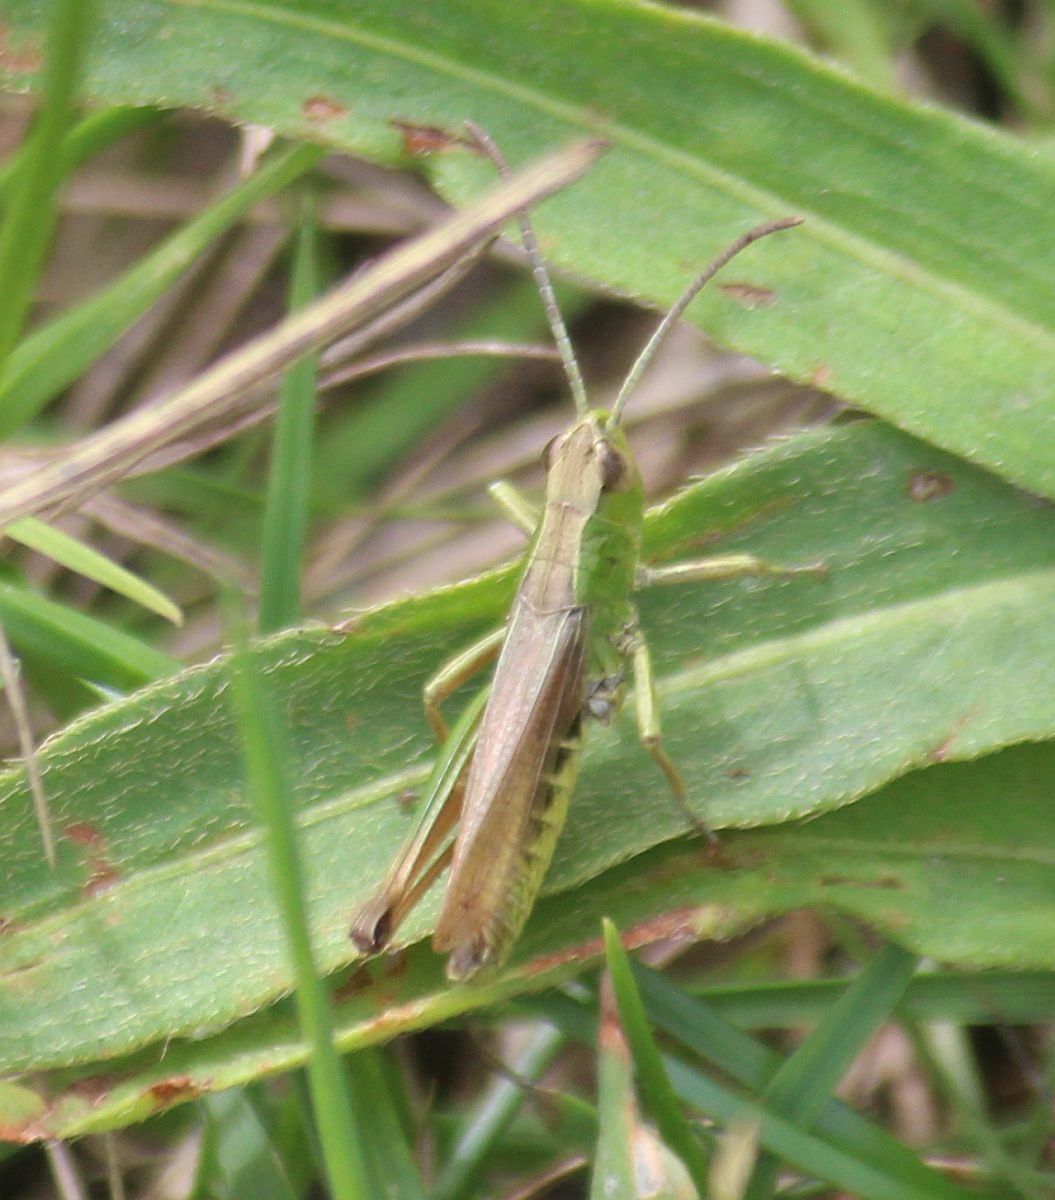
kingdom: Animalia
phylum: Arthropoda
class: Insecta
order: Orthoptera
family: Acrididae
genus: Pseudochorthippus
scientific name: Pseudochorthippus parallelus
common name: Meadow grasshopper
